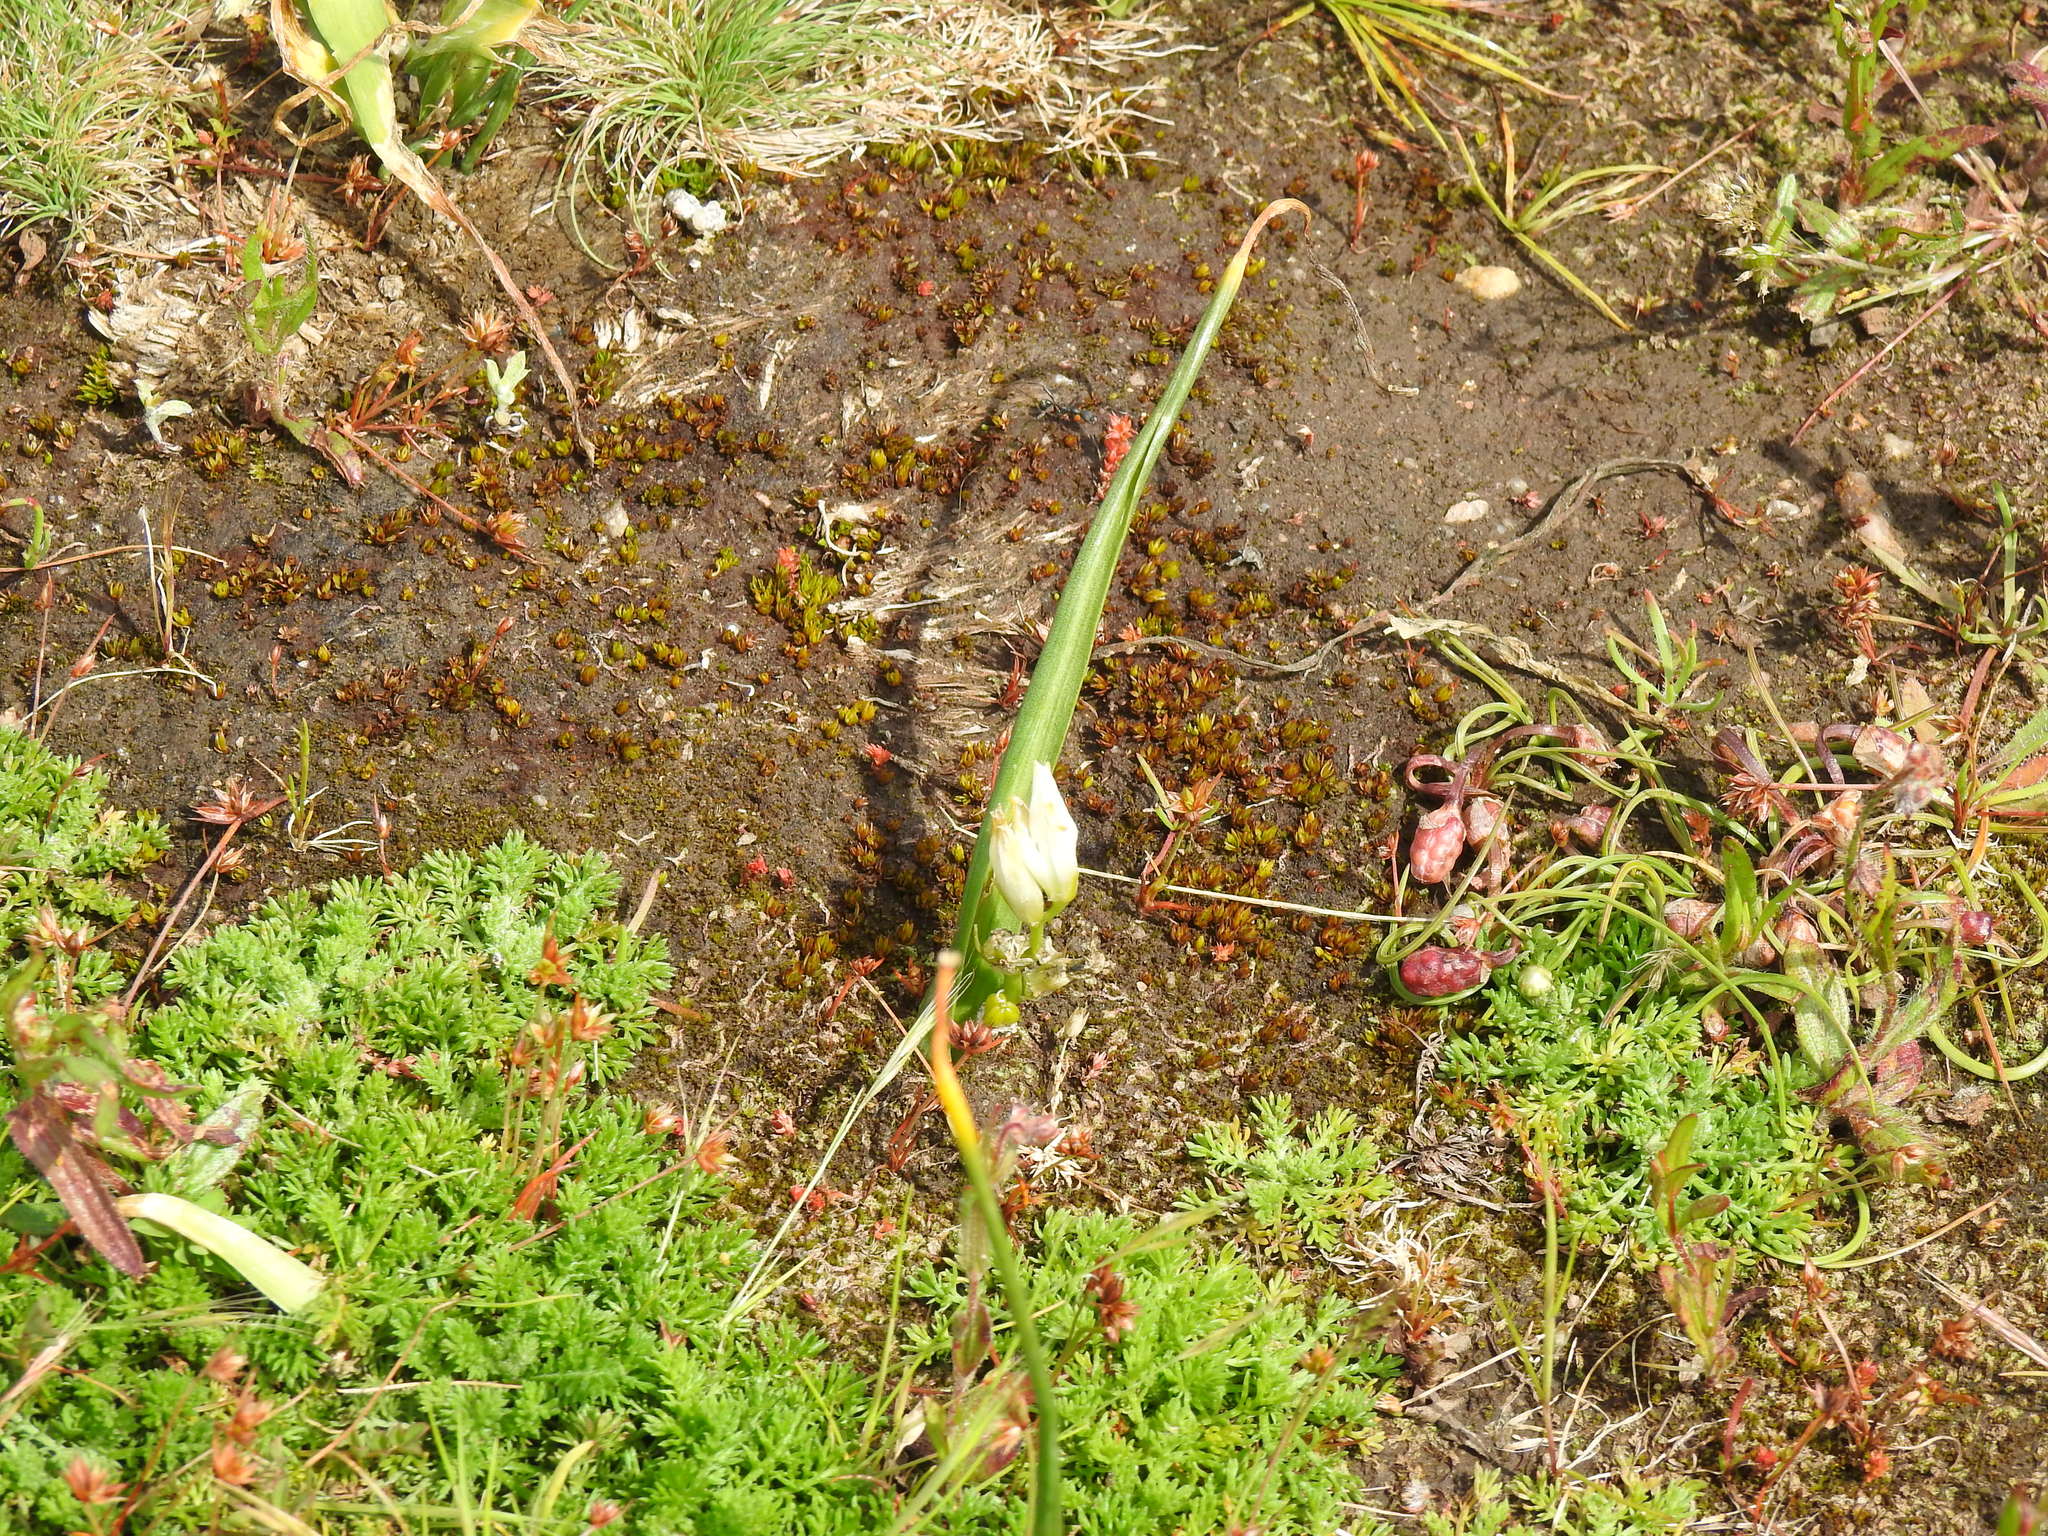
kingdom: Plantae
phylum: Tracheophyta
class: Liliopsida
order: Asparagales
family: Asparagaceae
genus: Ornithogalum
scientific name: Ornithogalum broteroi
